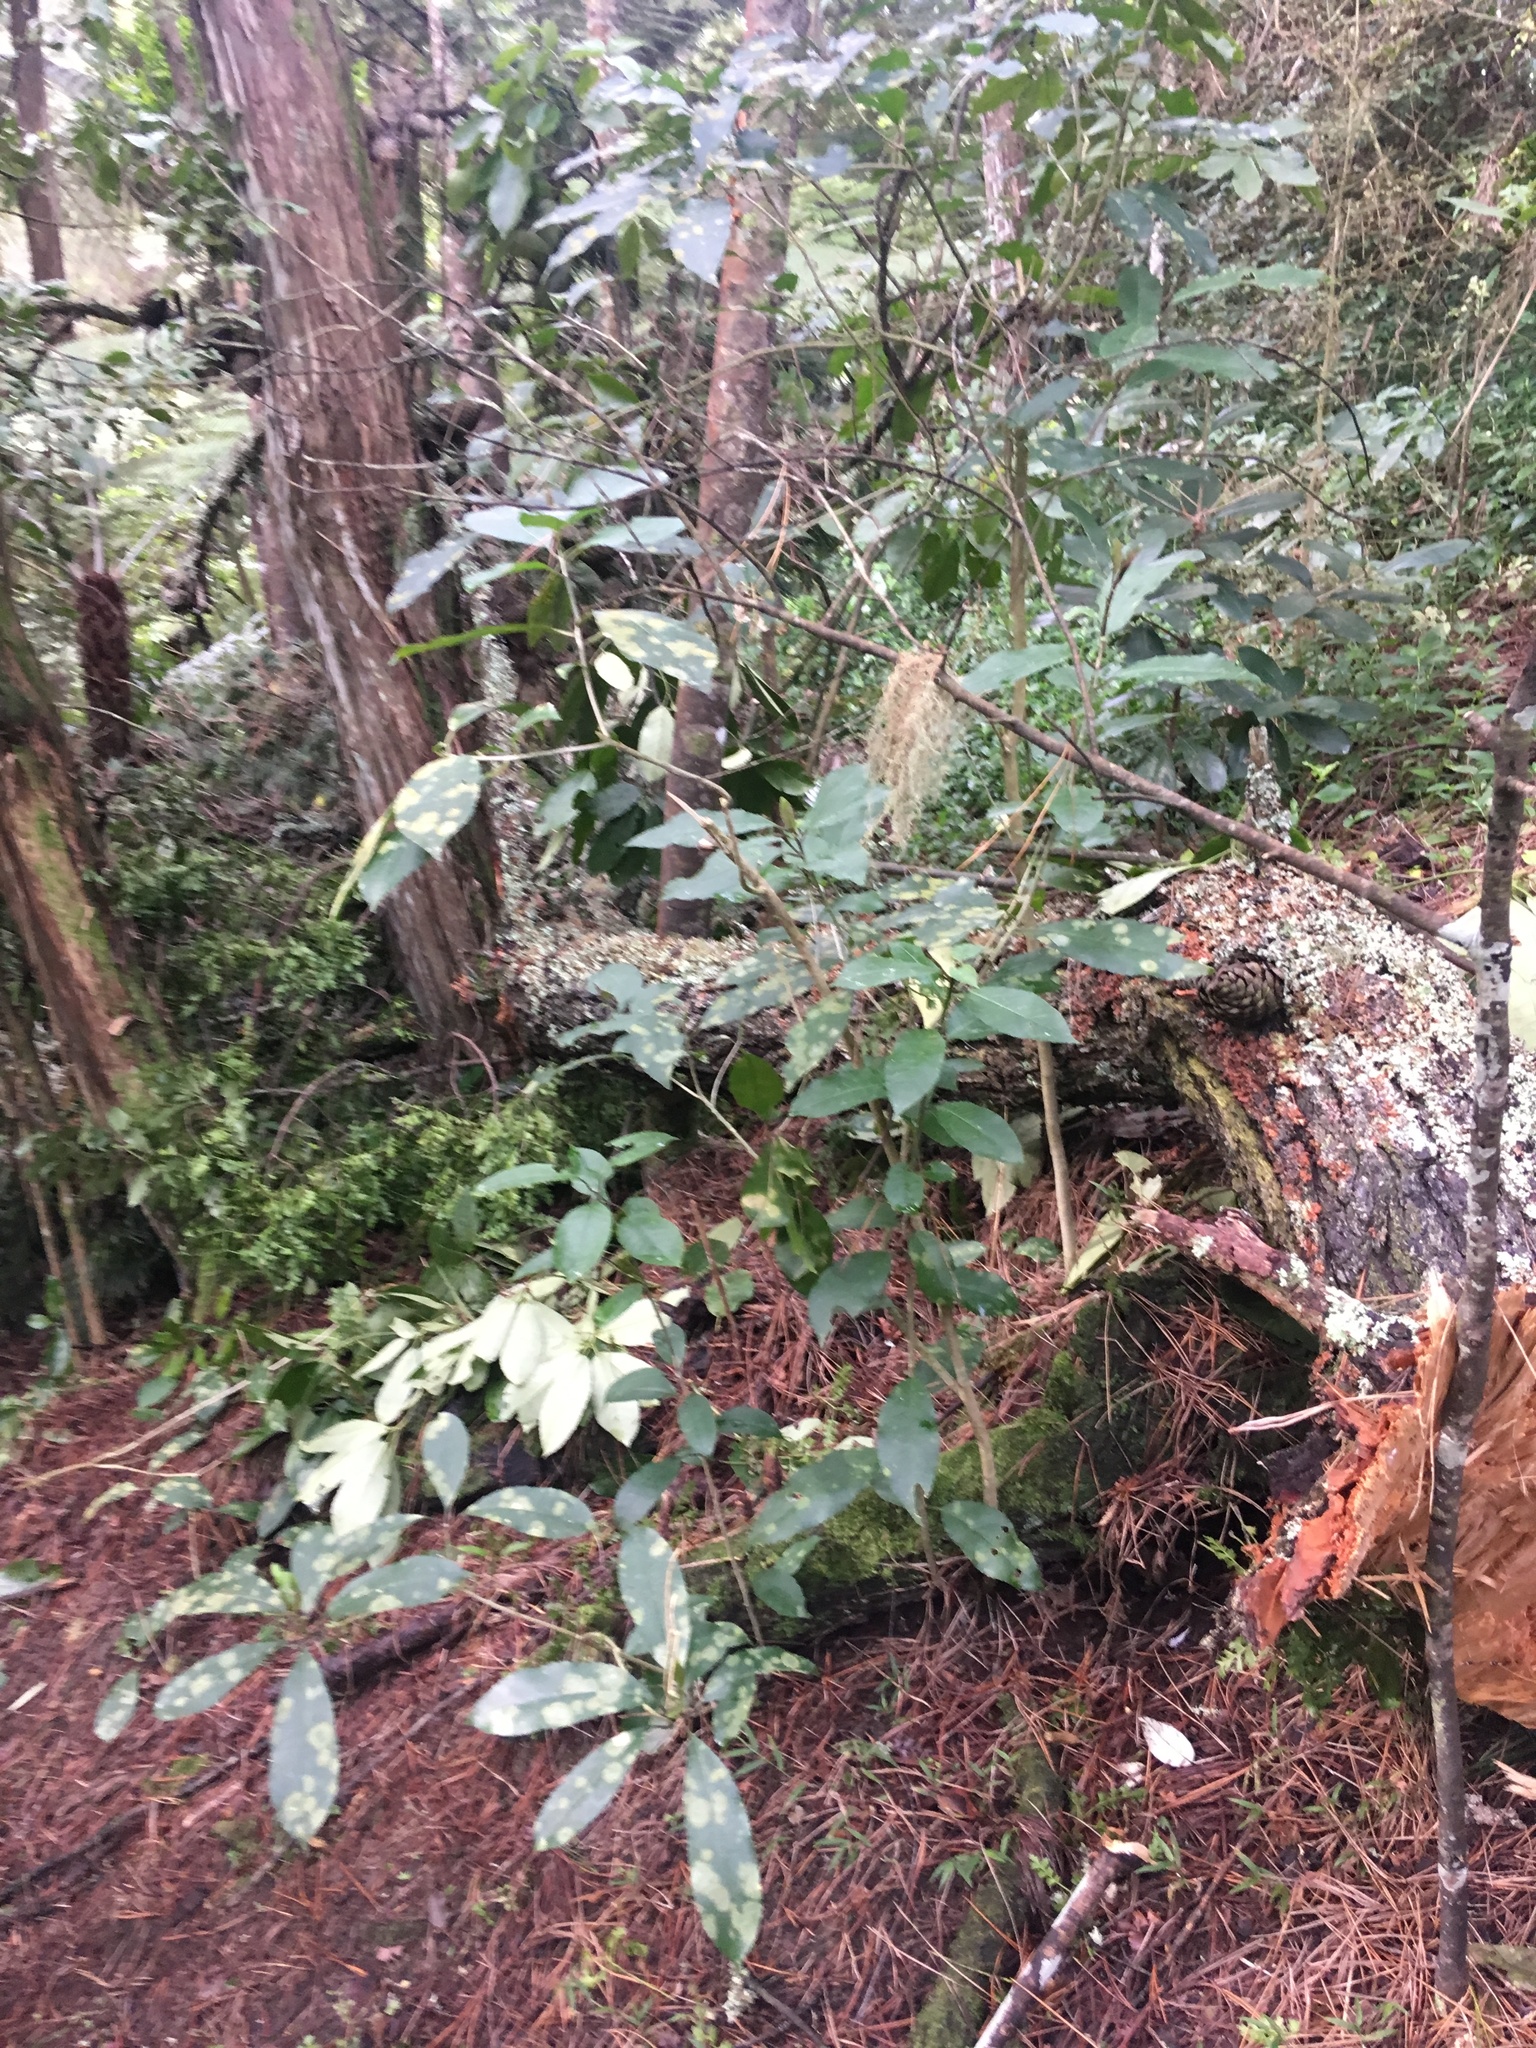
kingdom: Plantae
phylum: Tracheophyta
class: Polypodiopsida
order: Polypodiales
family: Aspleniaceae
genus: Asplenium
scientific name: Asplenium oblongifolium
